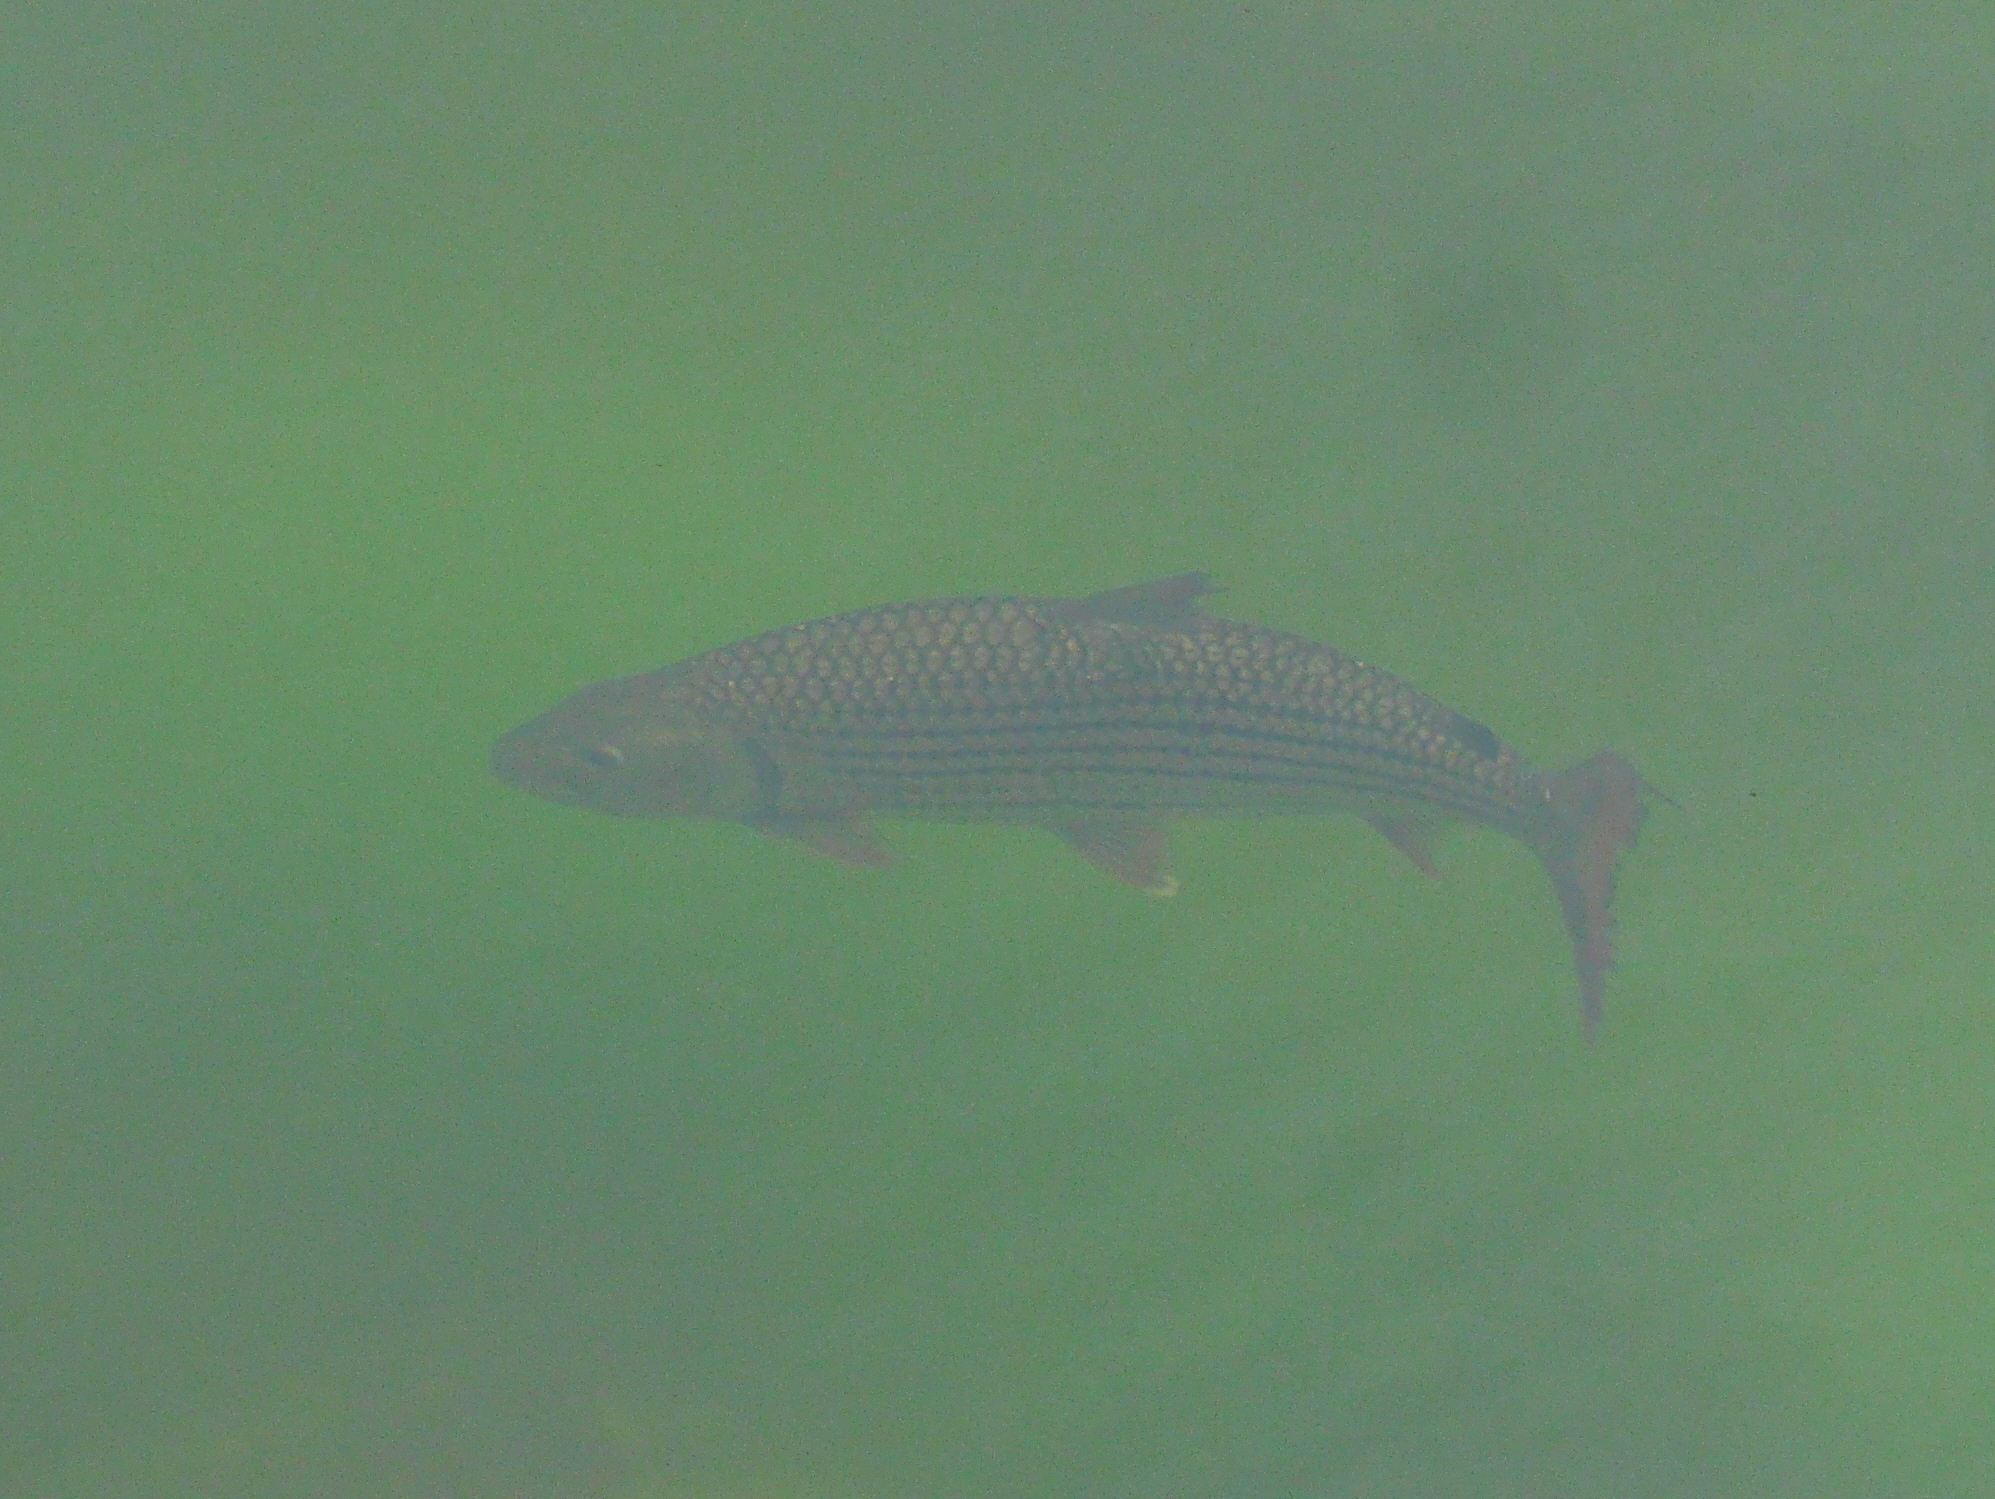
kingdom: Animalia
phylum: Chordata
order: Characiformes
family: Alestidae
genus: Hydrocynus
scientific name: Hydrocynus vittatus
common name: Tigerfish
